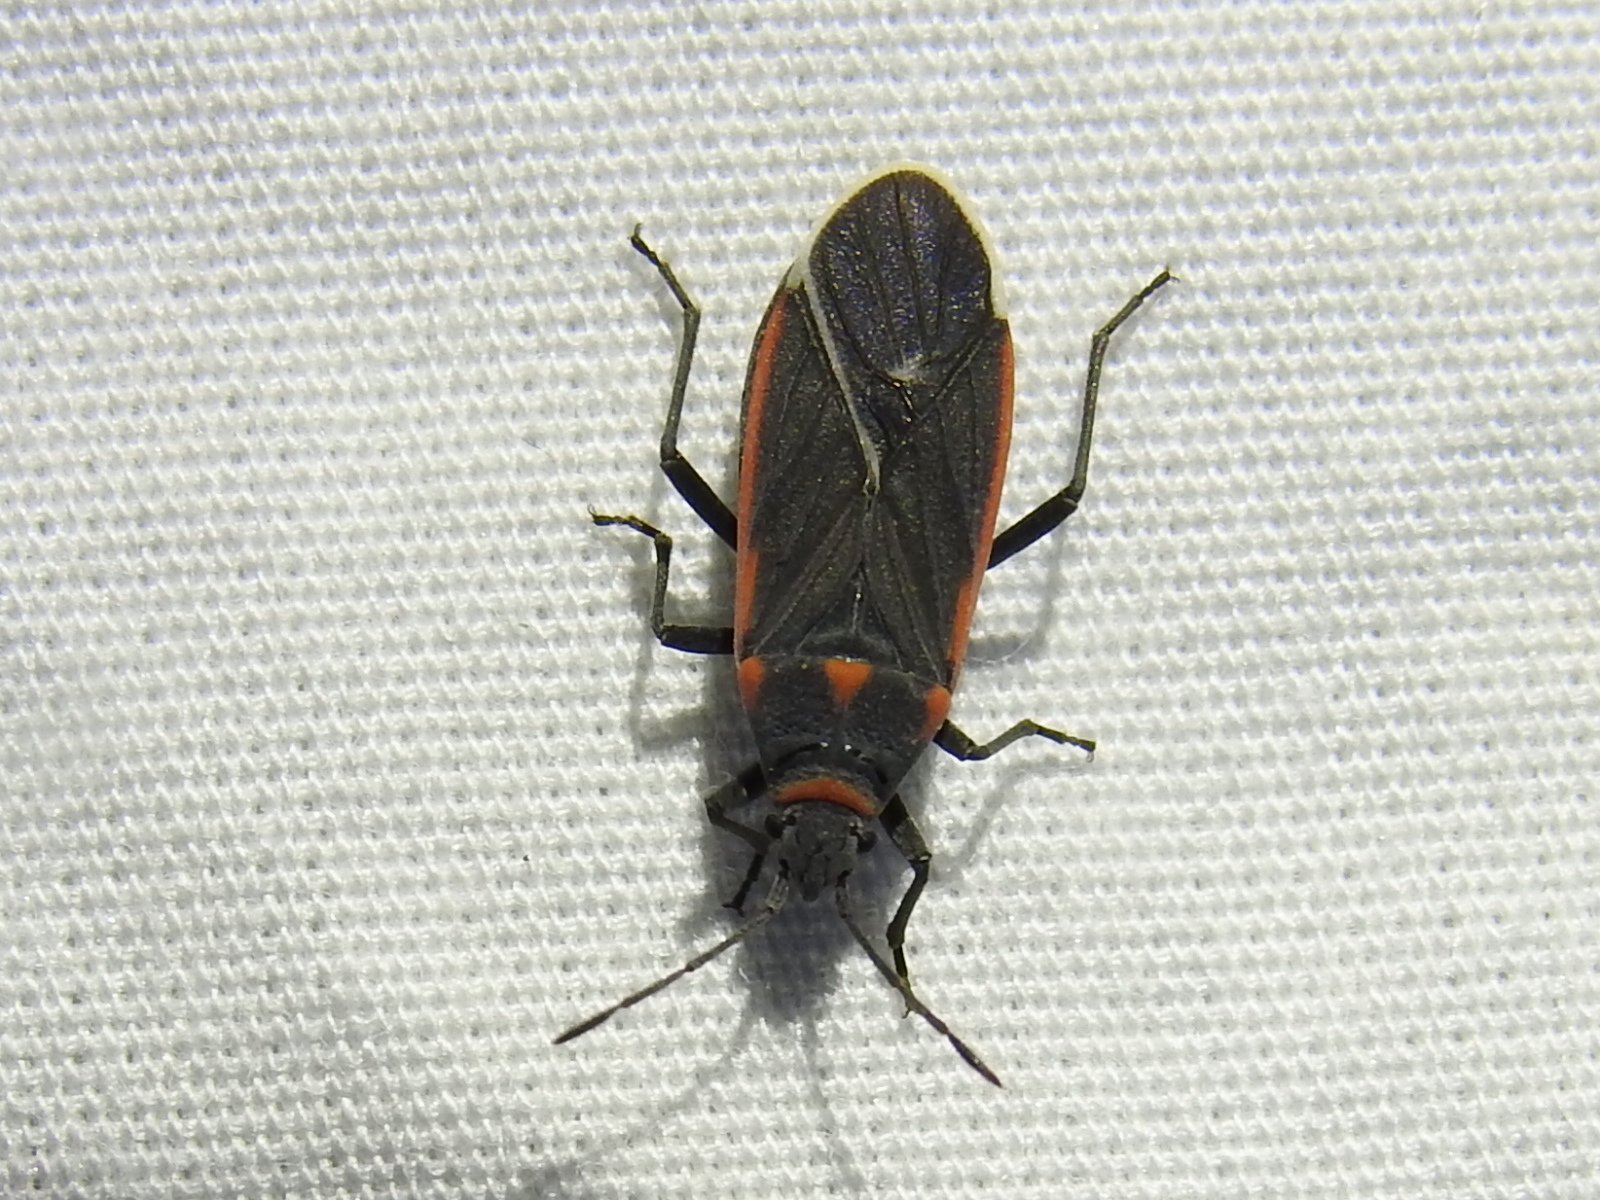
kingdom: Animalia
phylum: Arthropoda
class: Insecta
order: Hemiptera
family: Lygaeidae
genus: Melacoryphus
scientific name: Melacoryphus lateralis
